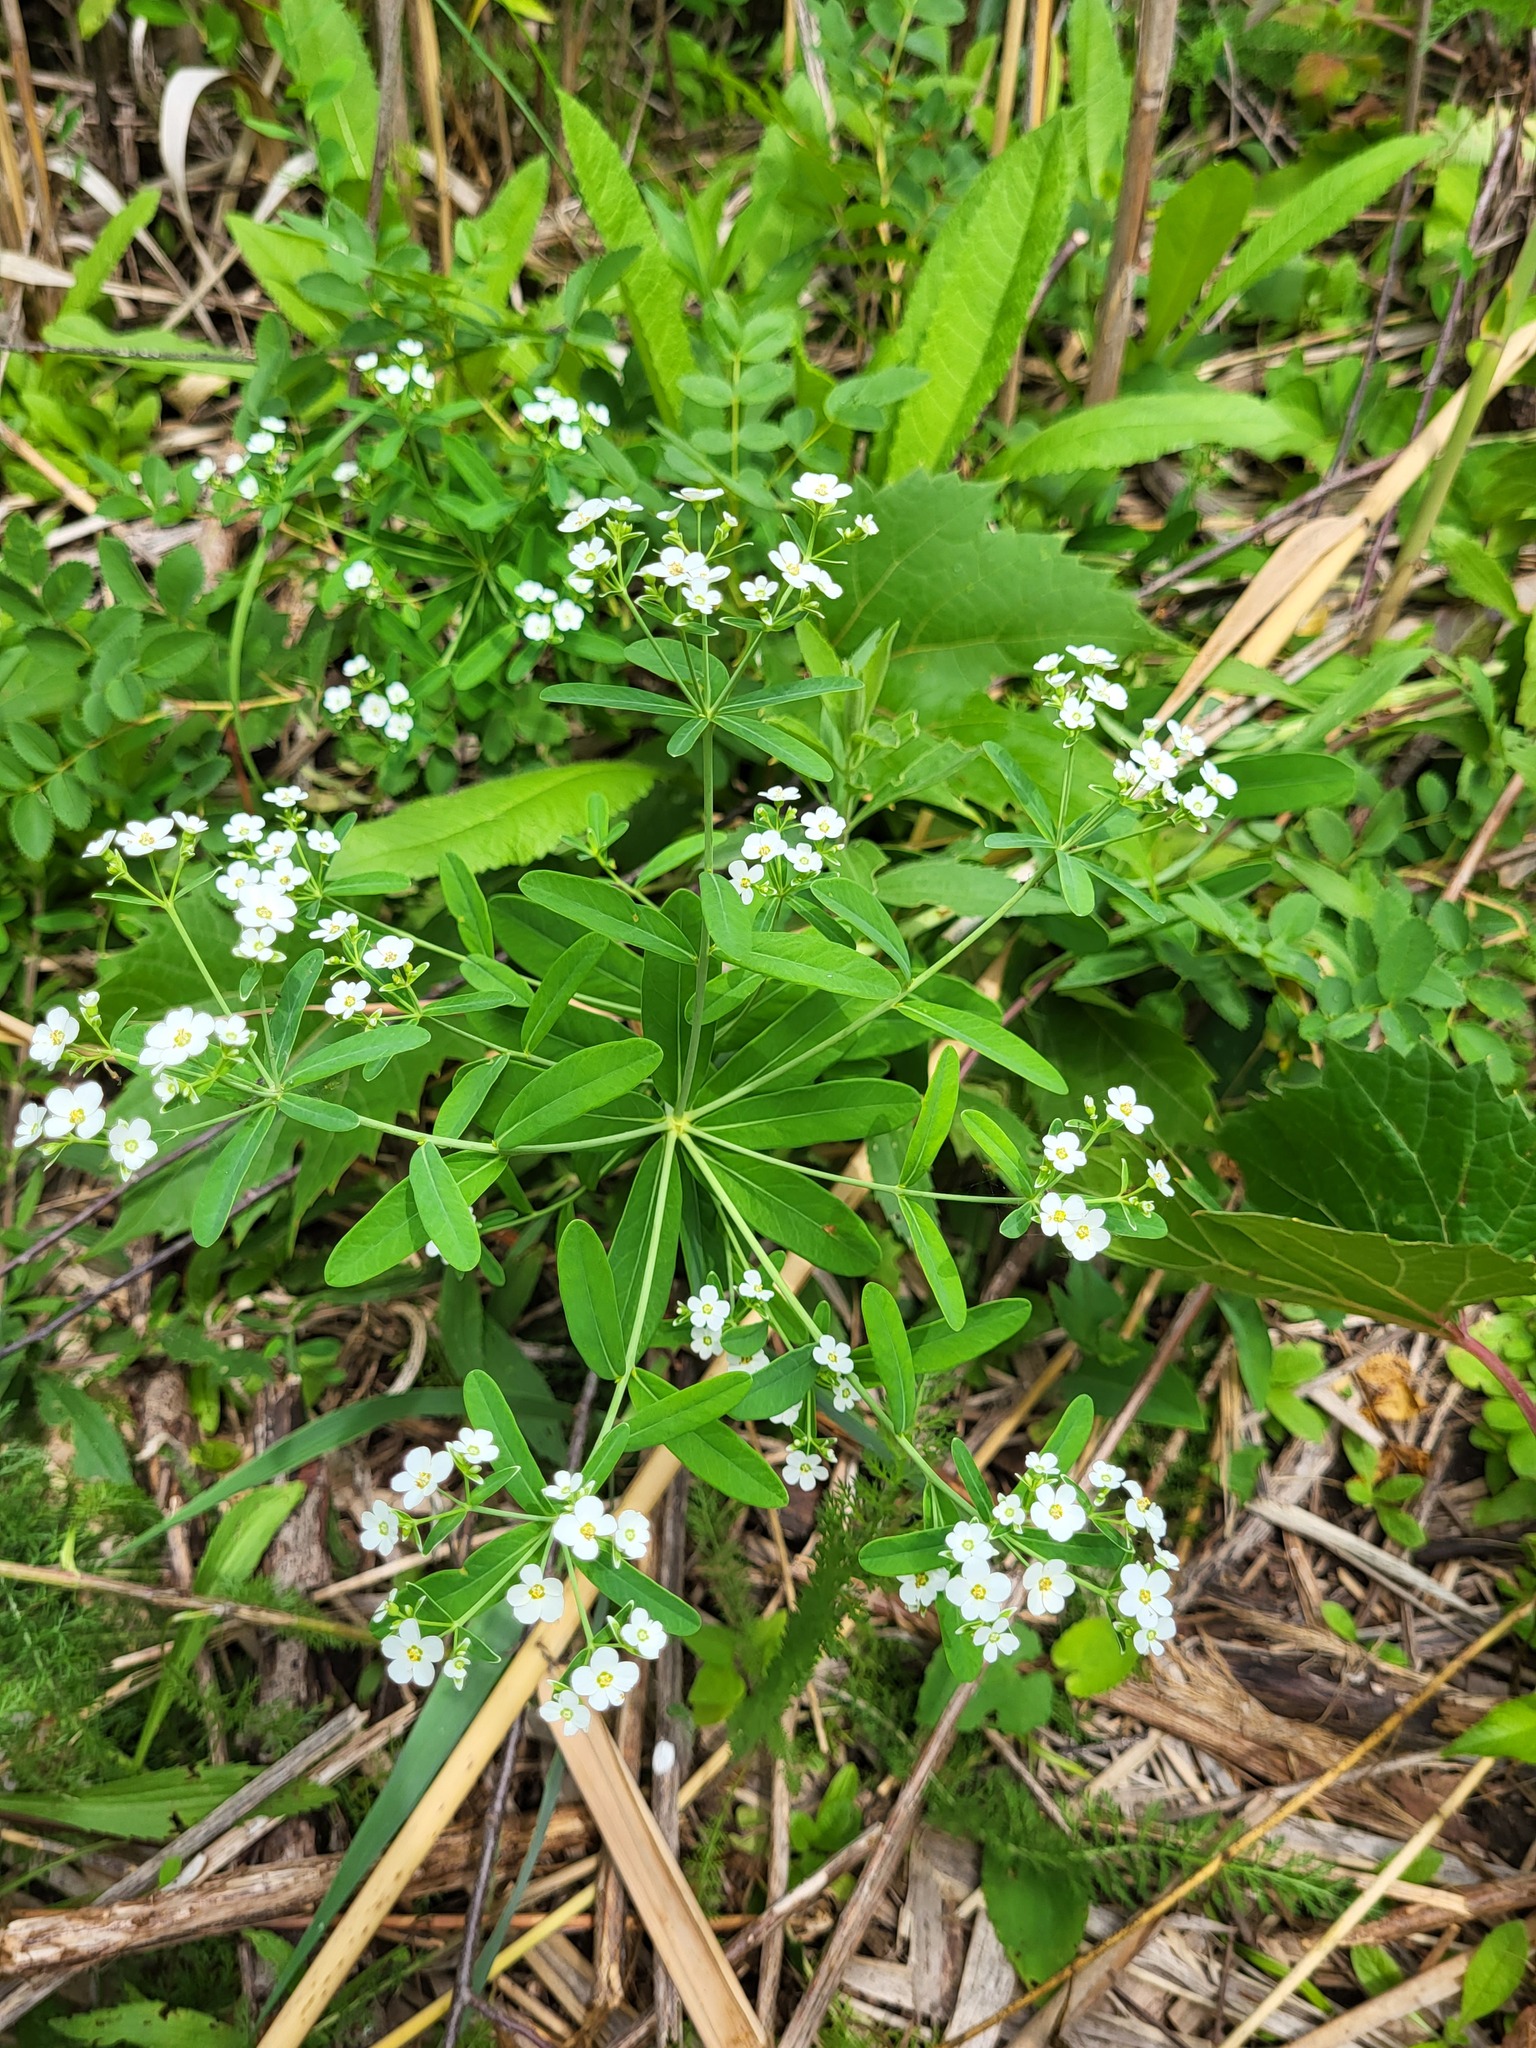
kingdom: Plantae
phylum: Tracheophyta
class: Magnoliopsida
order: Malpighiales
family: Euphorbiaceae
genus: Euphorbia
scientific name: Euphorbia corollata
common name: Flowering spurge
